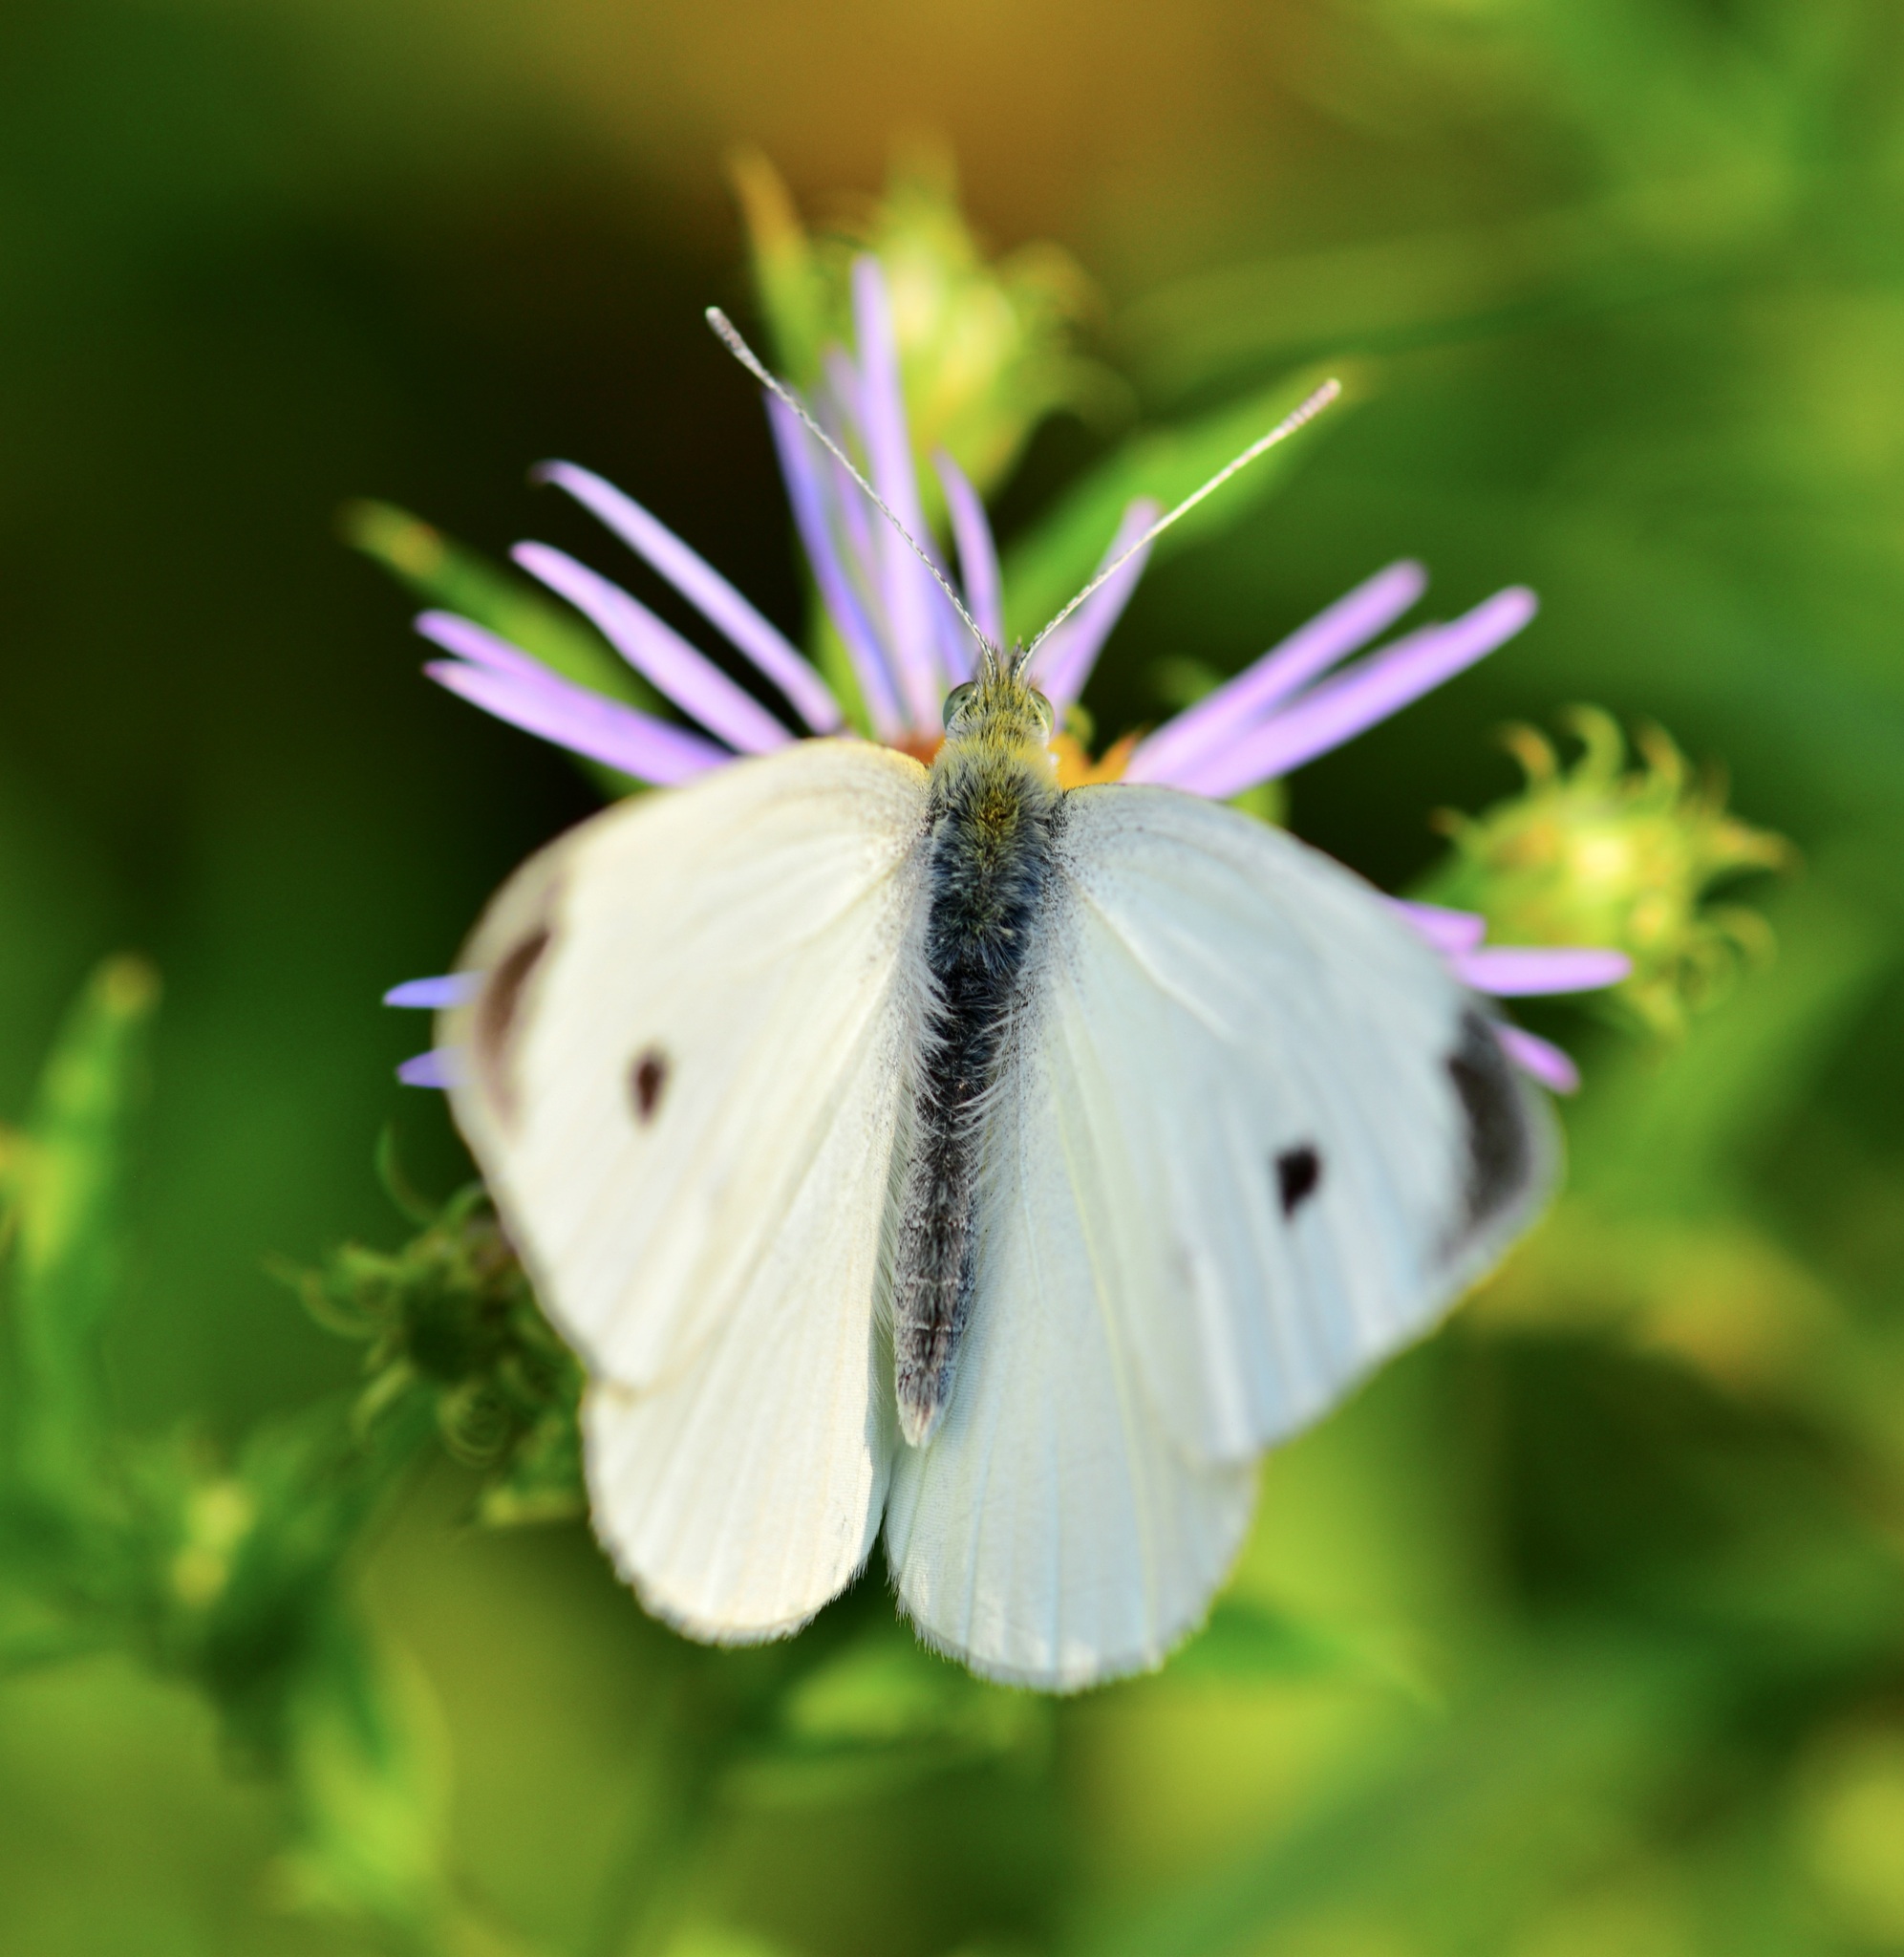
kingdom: Animalia
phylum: Arthropoda
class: Insecta
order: Lepidoptera
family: Pieridae
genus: Pieris
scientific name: Pieris rapae
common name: Small white
